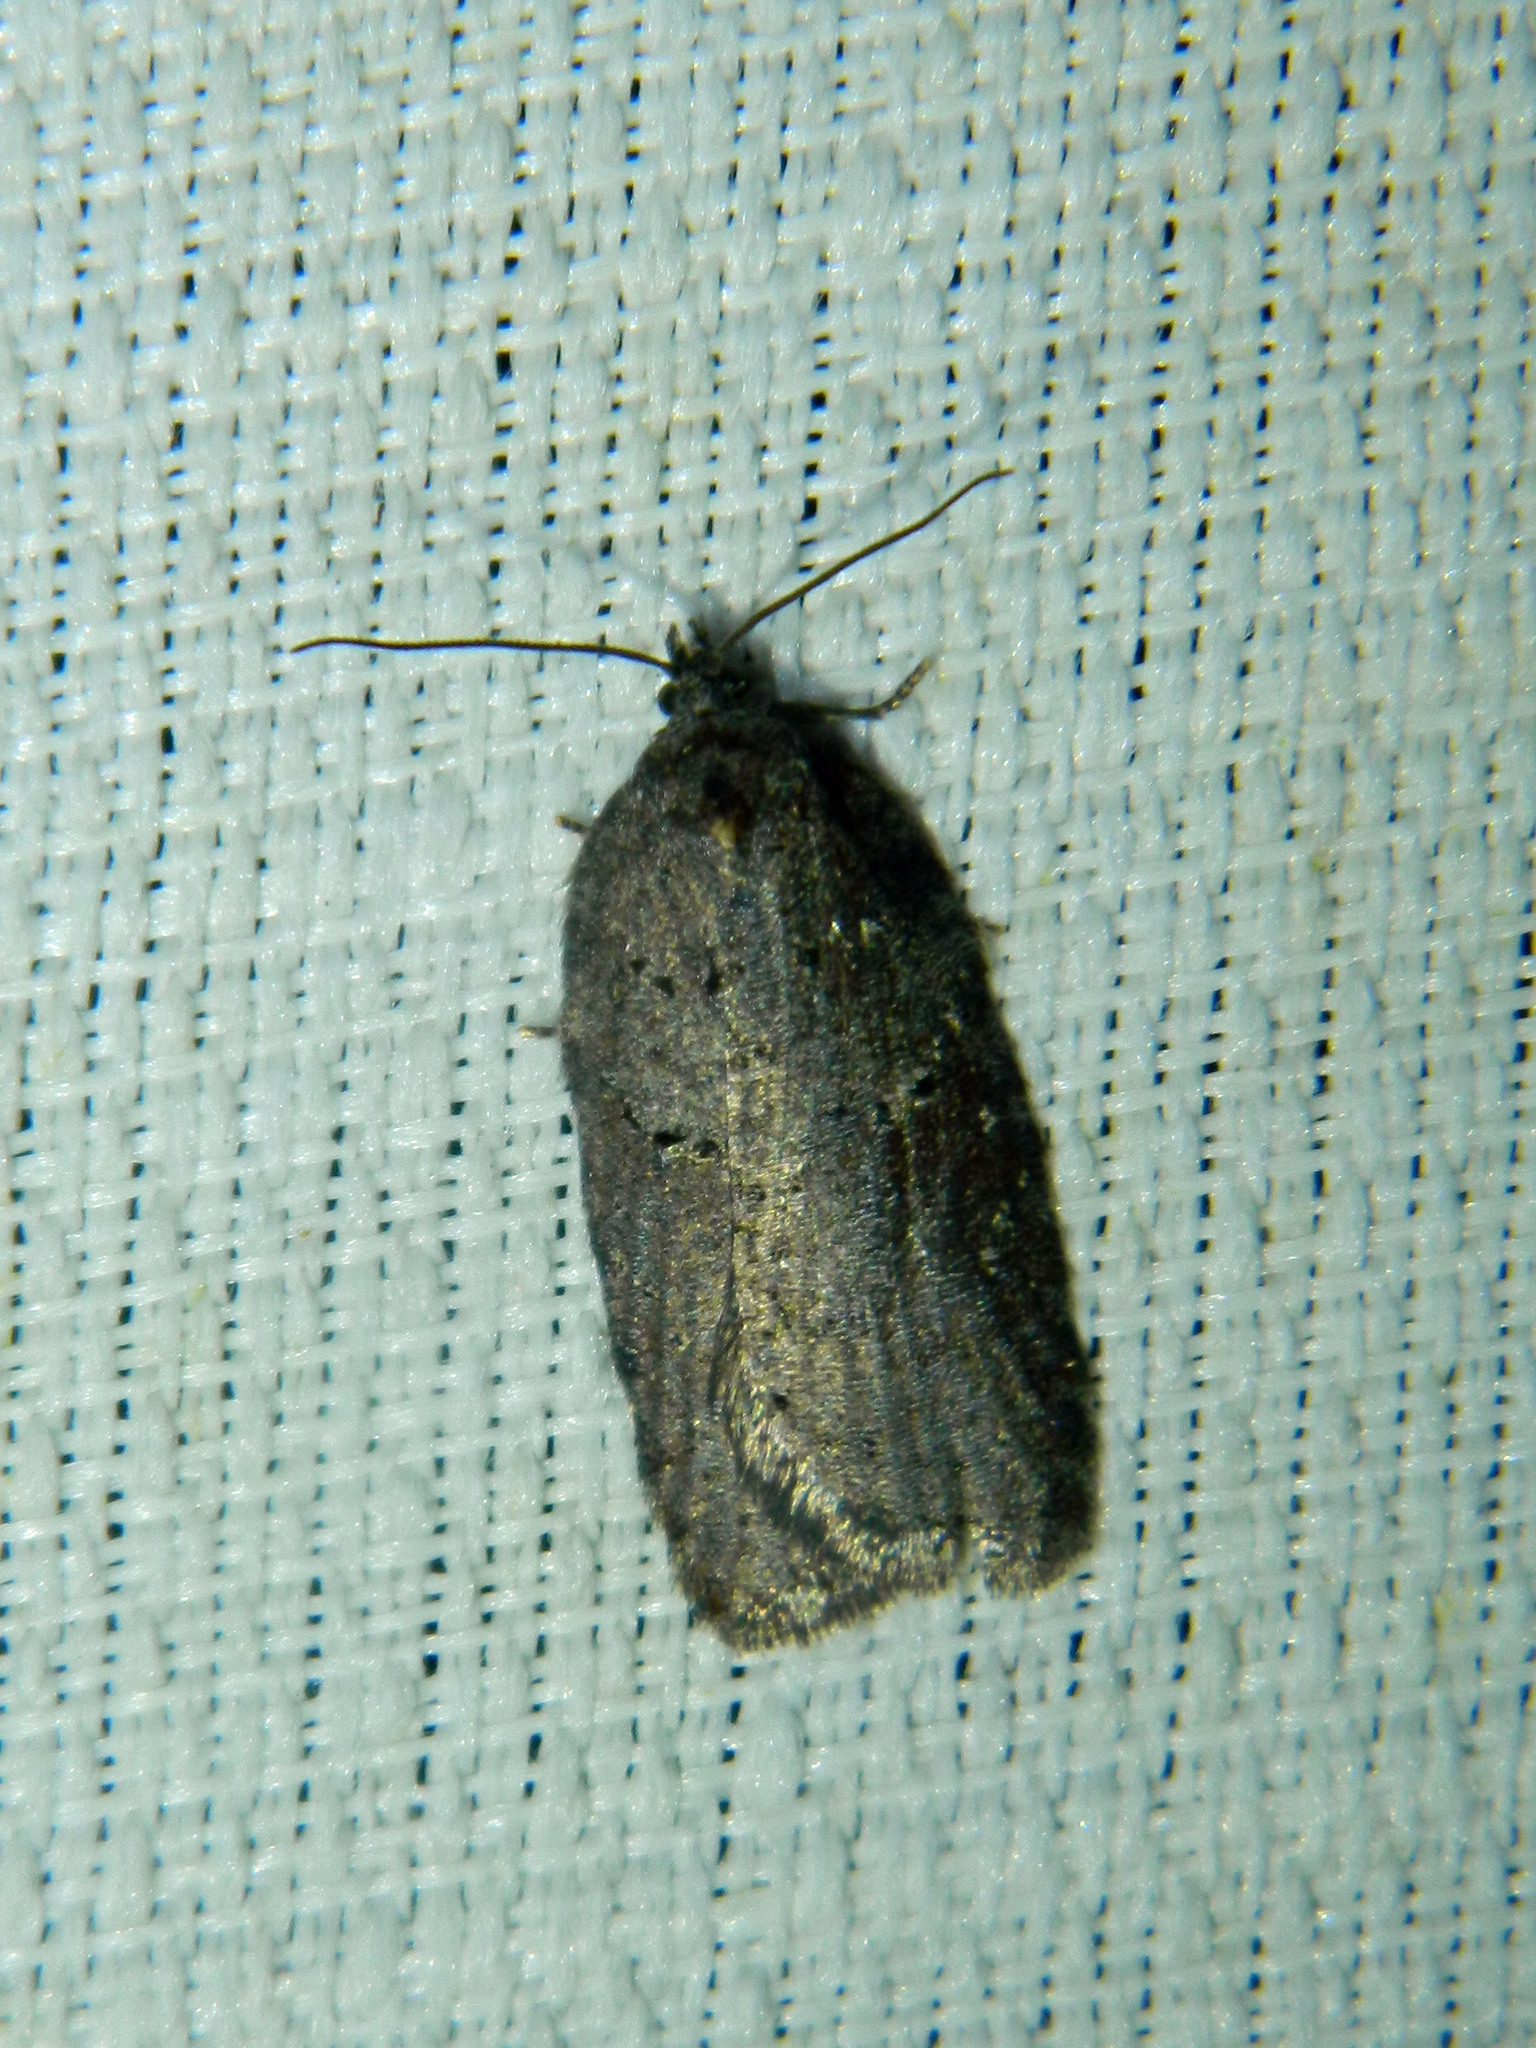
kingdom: Animalia
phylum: Arthropoda
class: Insecta
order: Lepidoptera
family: Tortricidae
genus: Acleris
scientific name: Acleris caliginosana
